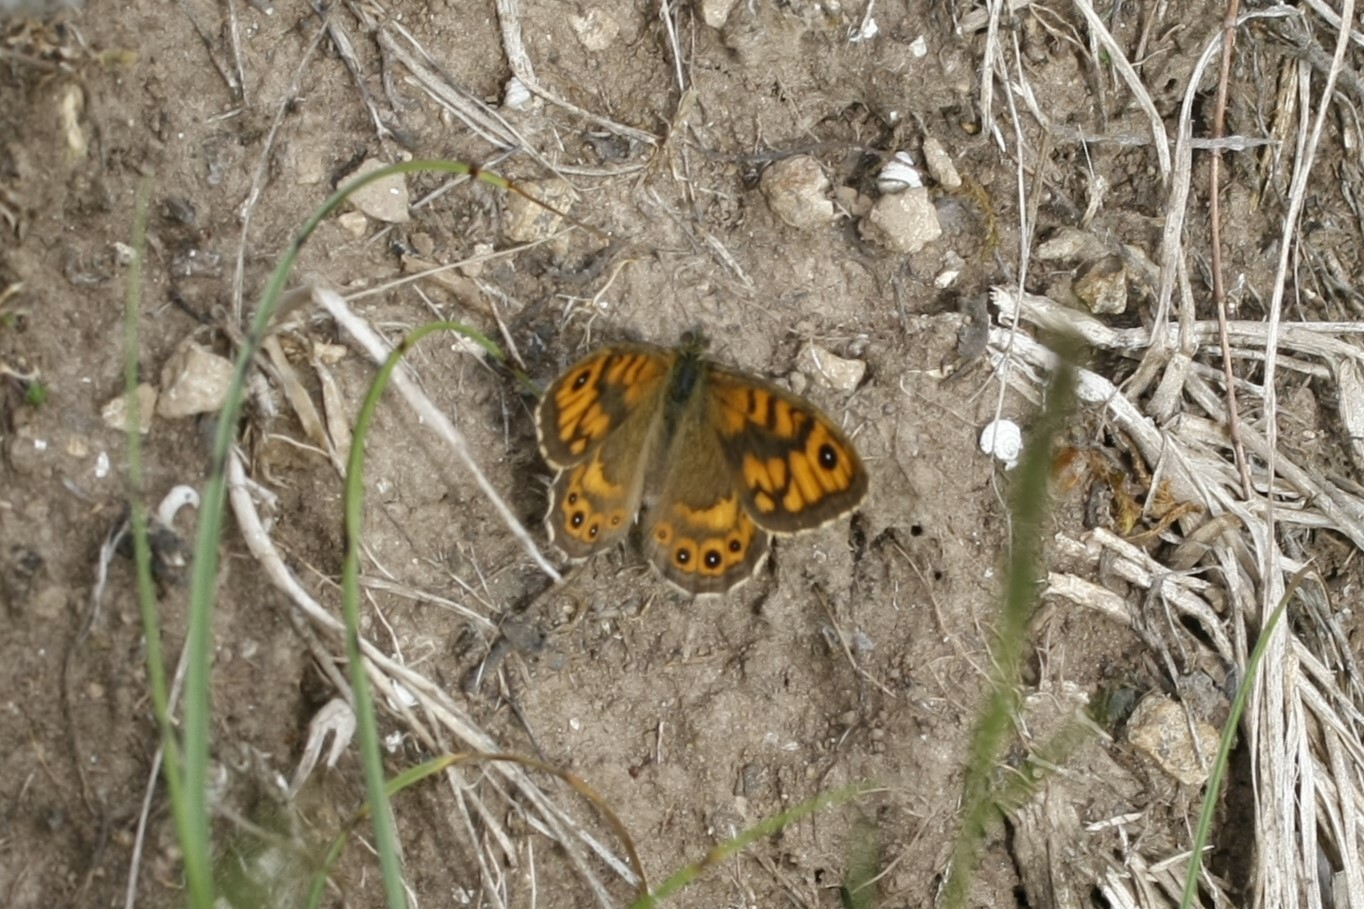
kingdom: Animalia
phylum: Arthropoda
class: Insecta
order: Lepidoptera
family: Nymphalidae
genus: Pararge
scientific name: Pararge Lasiommata megera
